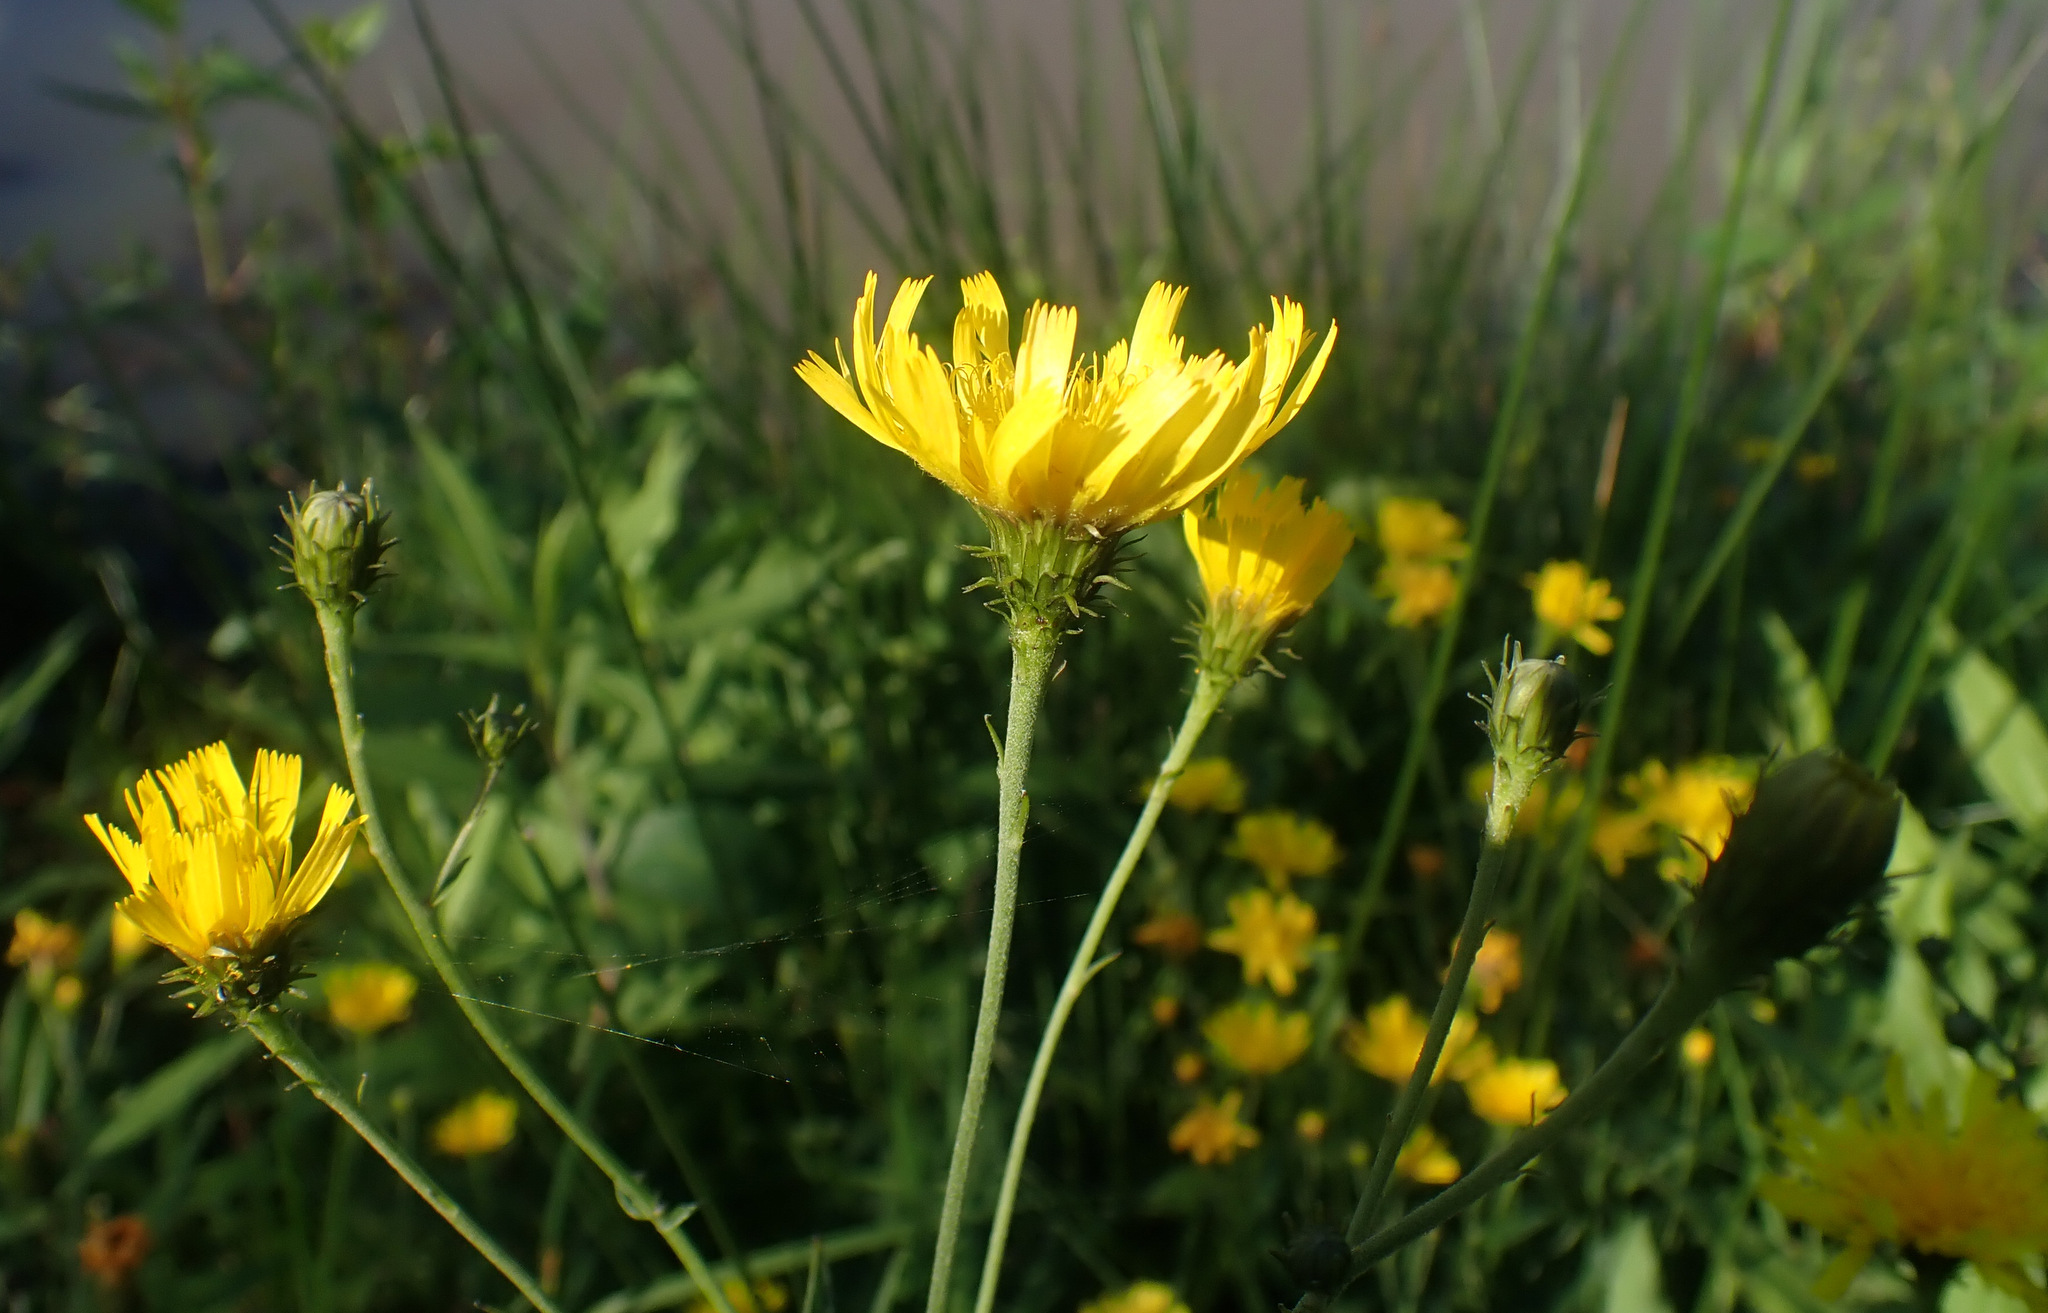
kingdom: Plantae
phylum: Tracheophyta
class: Magnoliopsida
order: Asterales
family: Asteraceae
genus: Hieracium
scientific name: Hieracium umbellatum
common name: Northern hawkweed
